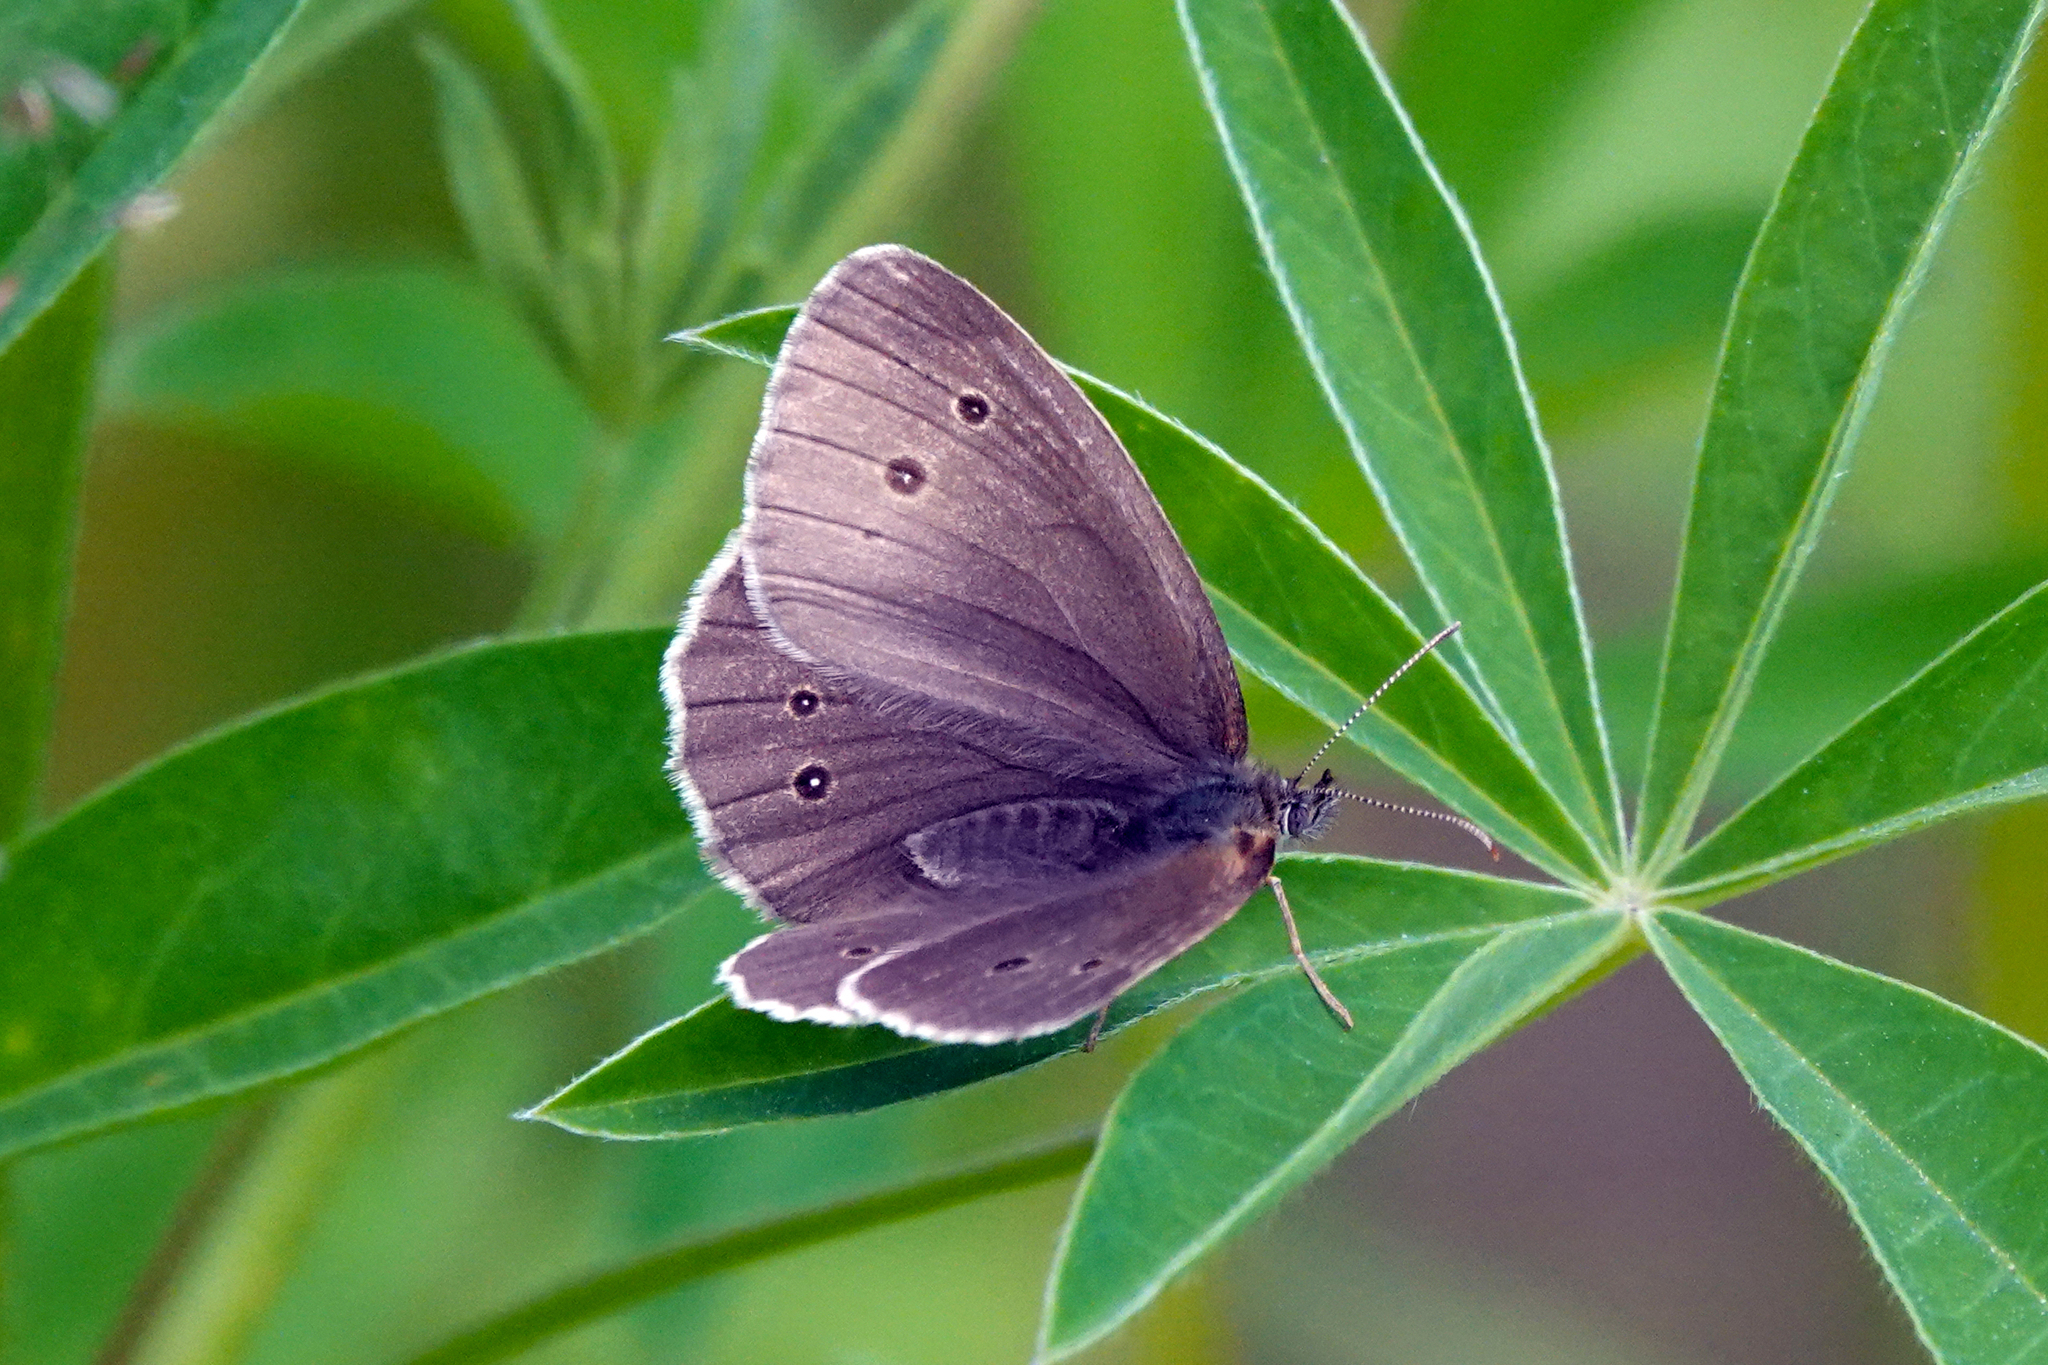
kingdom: Animalia
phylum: Arthropoda
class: Insecta
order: Lepidoptera
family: Nymphalidae
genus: Aphantopus
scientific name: Aphantopus hyperantus
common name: Ringlet
